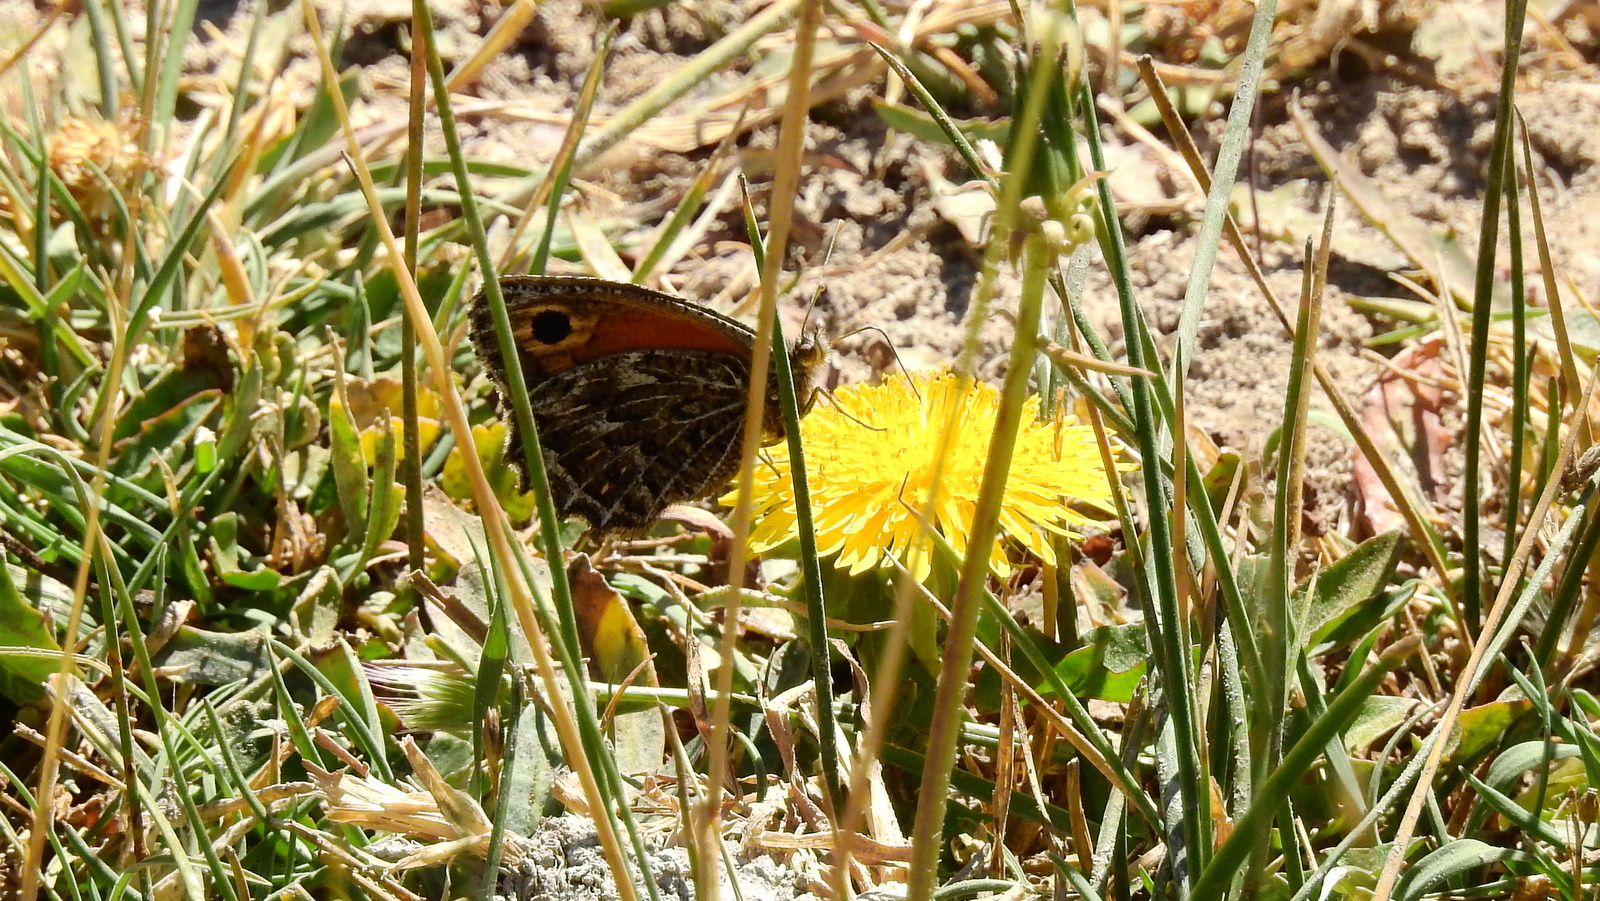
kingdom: Animalia
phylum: Arthropoda
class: Insecta
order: Lepidoptera
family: Nymphalidae
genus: Argyrophorus
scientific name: Argyrophorus
